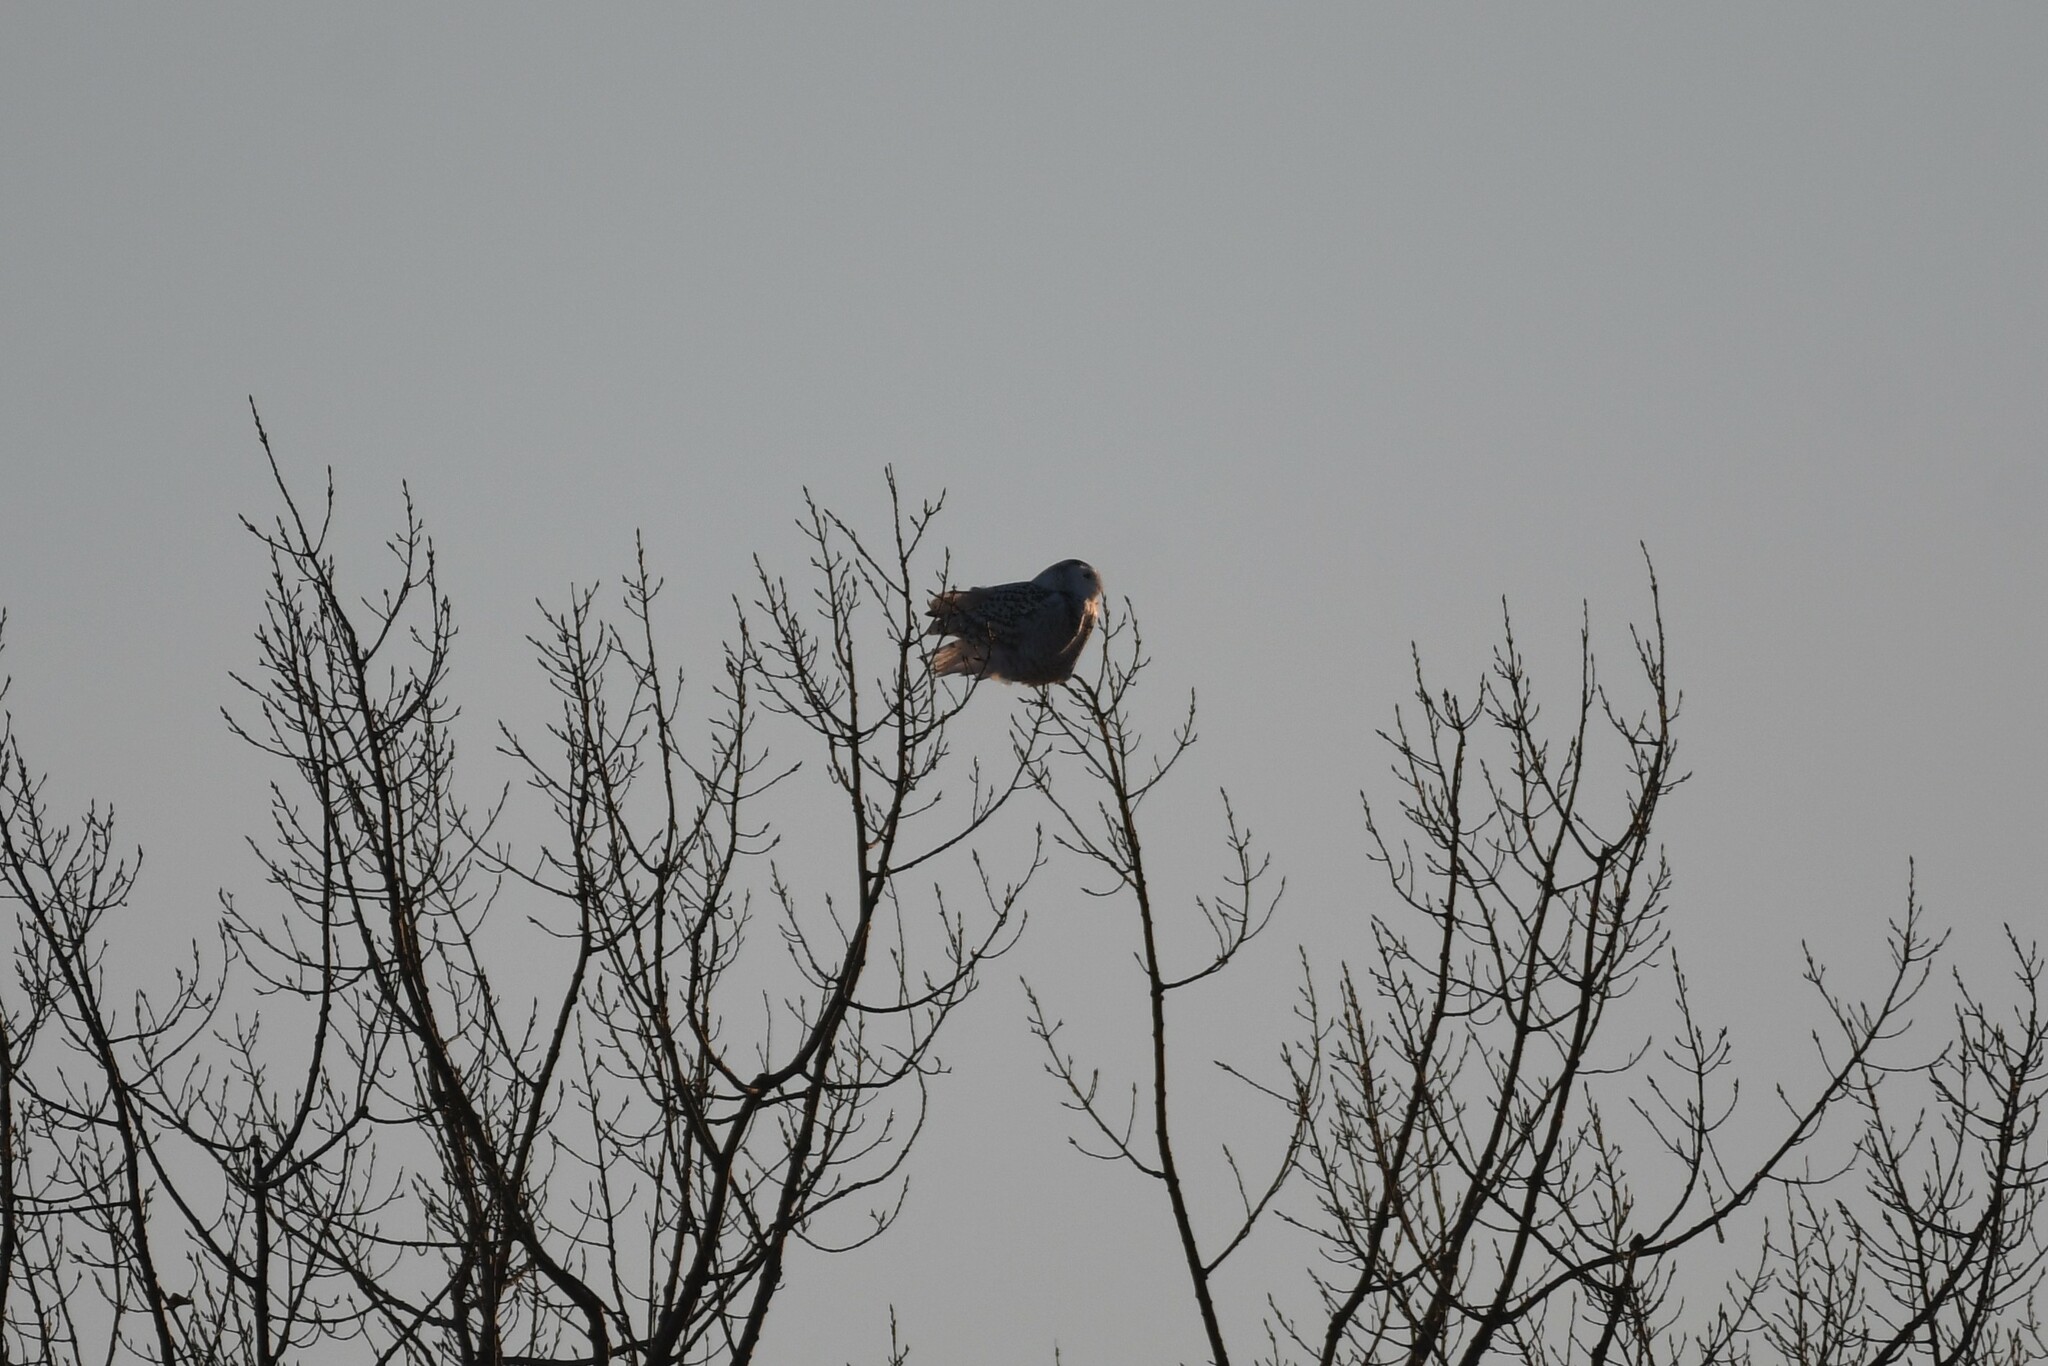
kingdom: Animalia
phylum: Chordata
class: Aves
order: Strigiformes
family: Strigidae
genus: Bubo
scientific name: Bubo scandiacus
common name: Snowy owl
